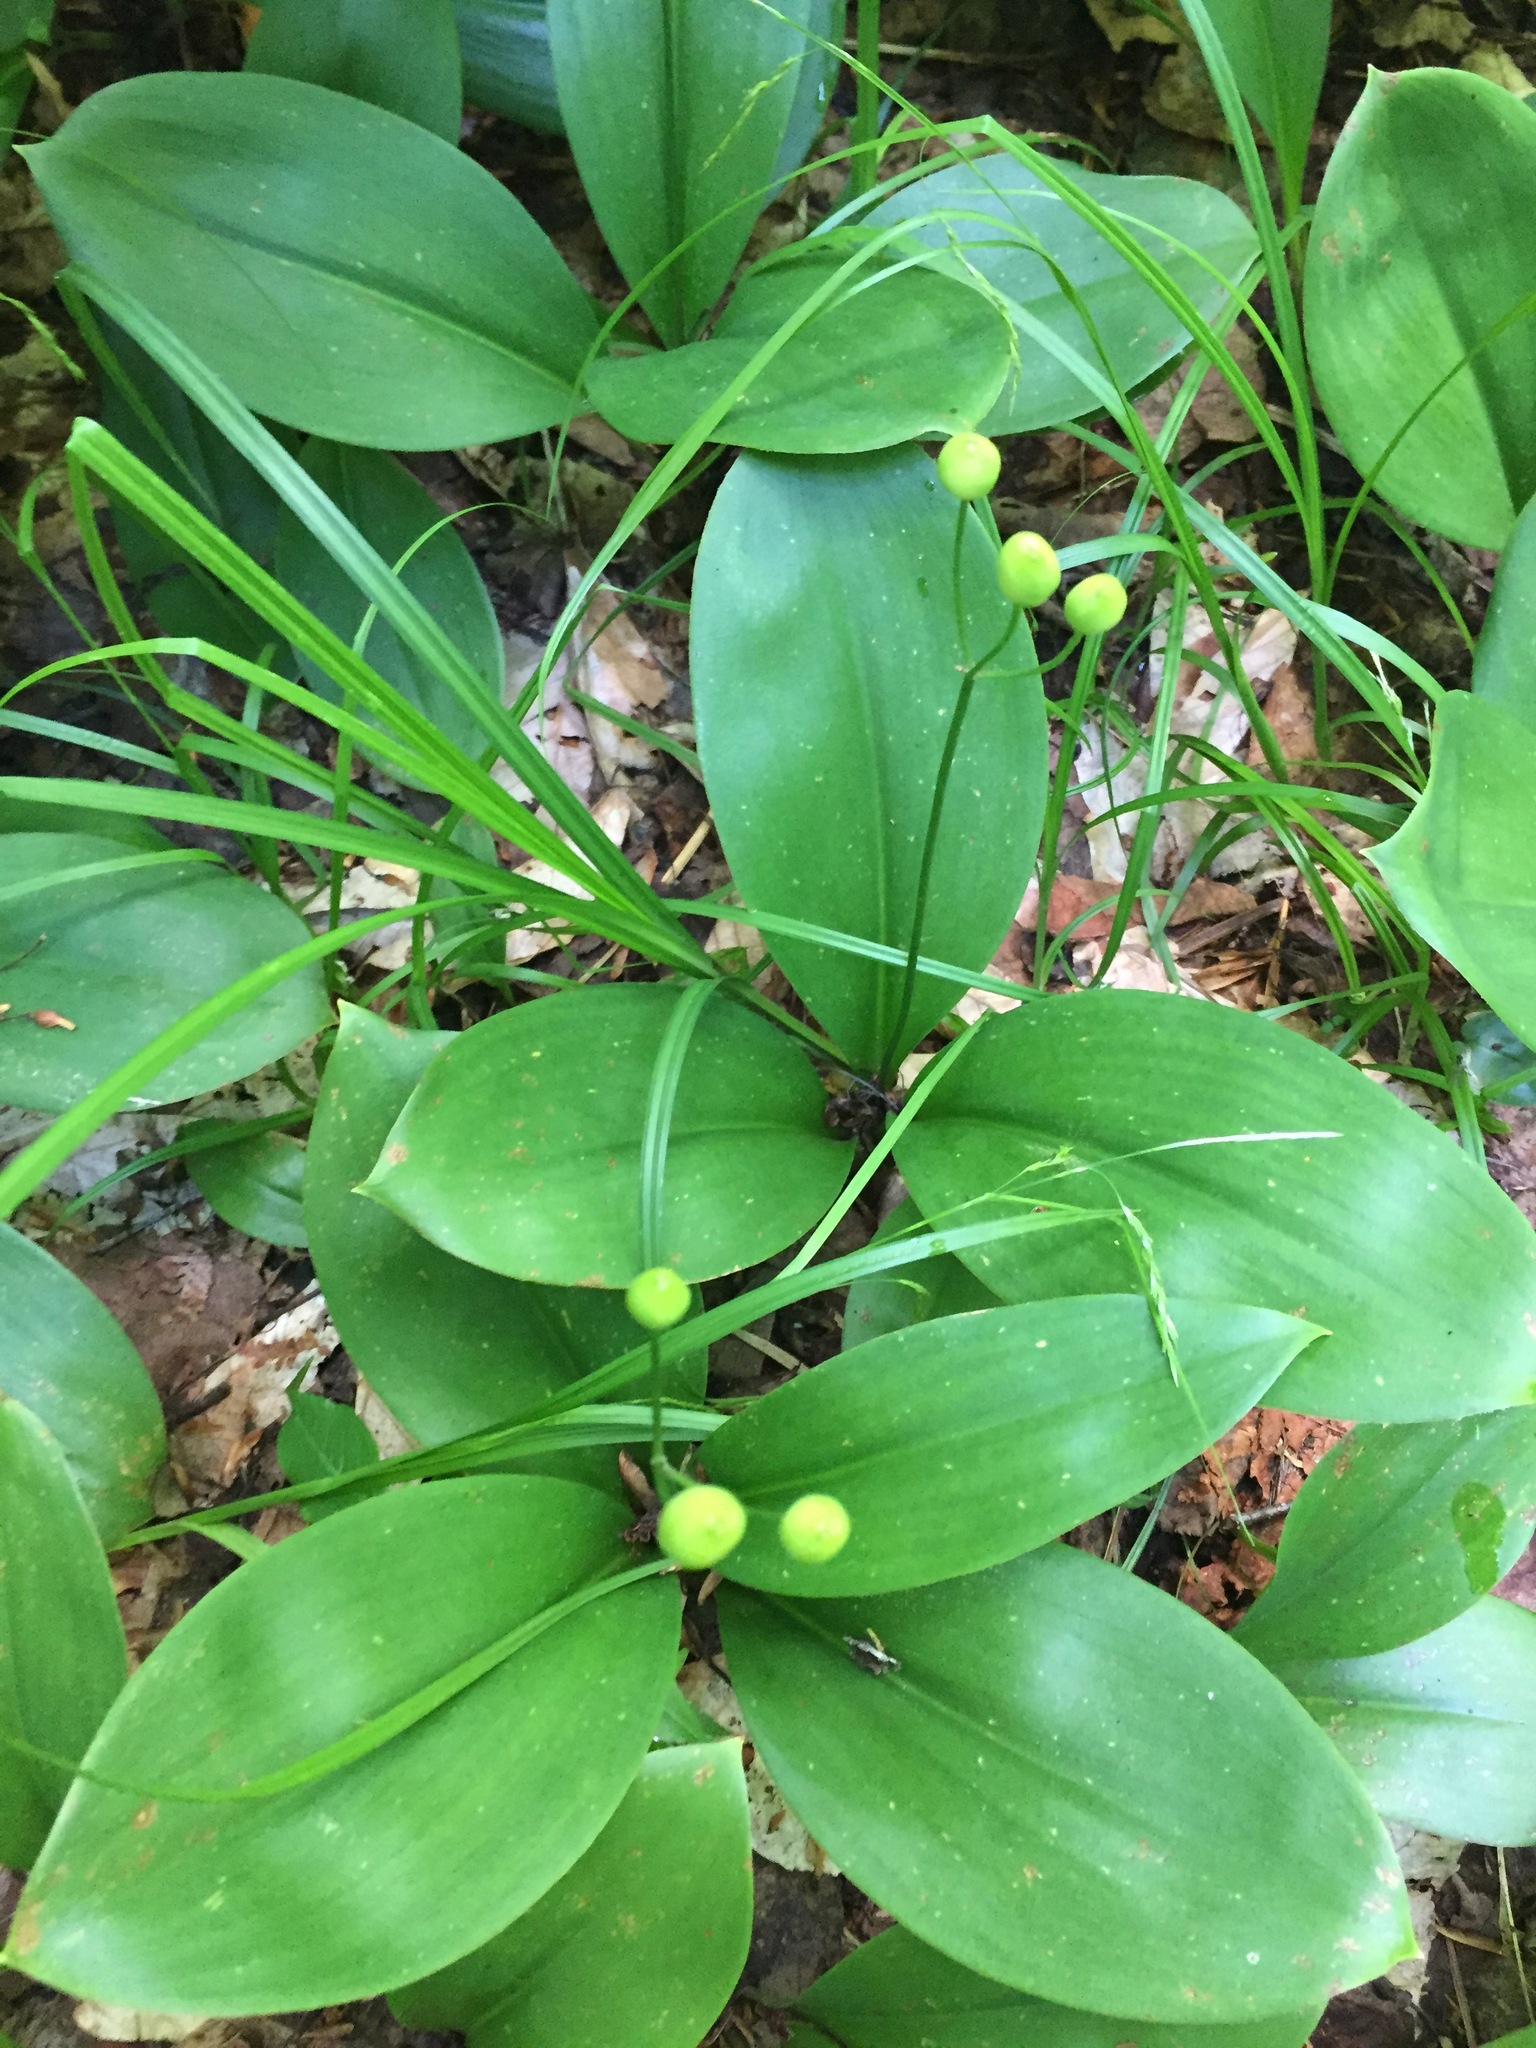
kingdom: Plantae
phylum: Tracheophyta
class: Liliopsida
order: Liliales
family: Liliaceae
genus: Clintonia
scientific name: Clintonia borealis
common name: Yellow clintonia
